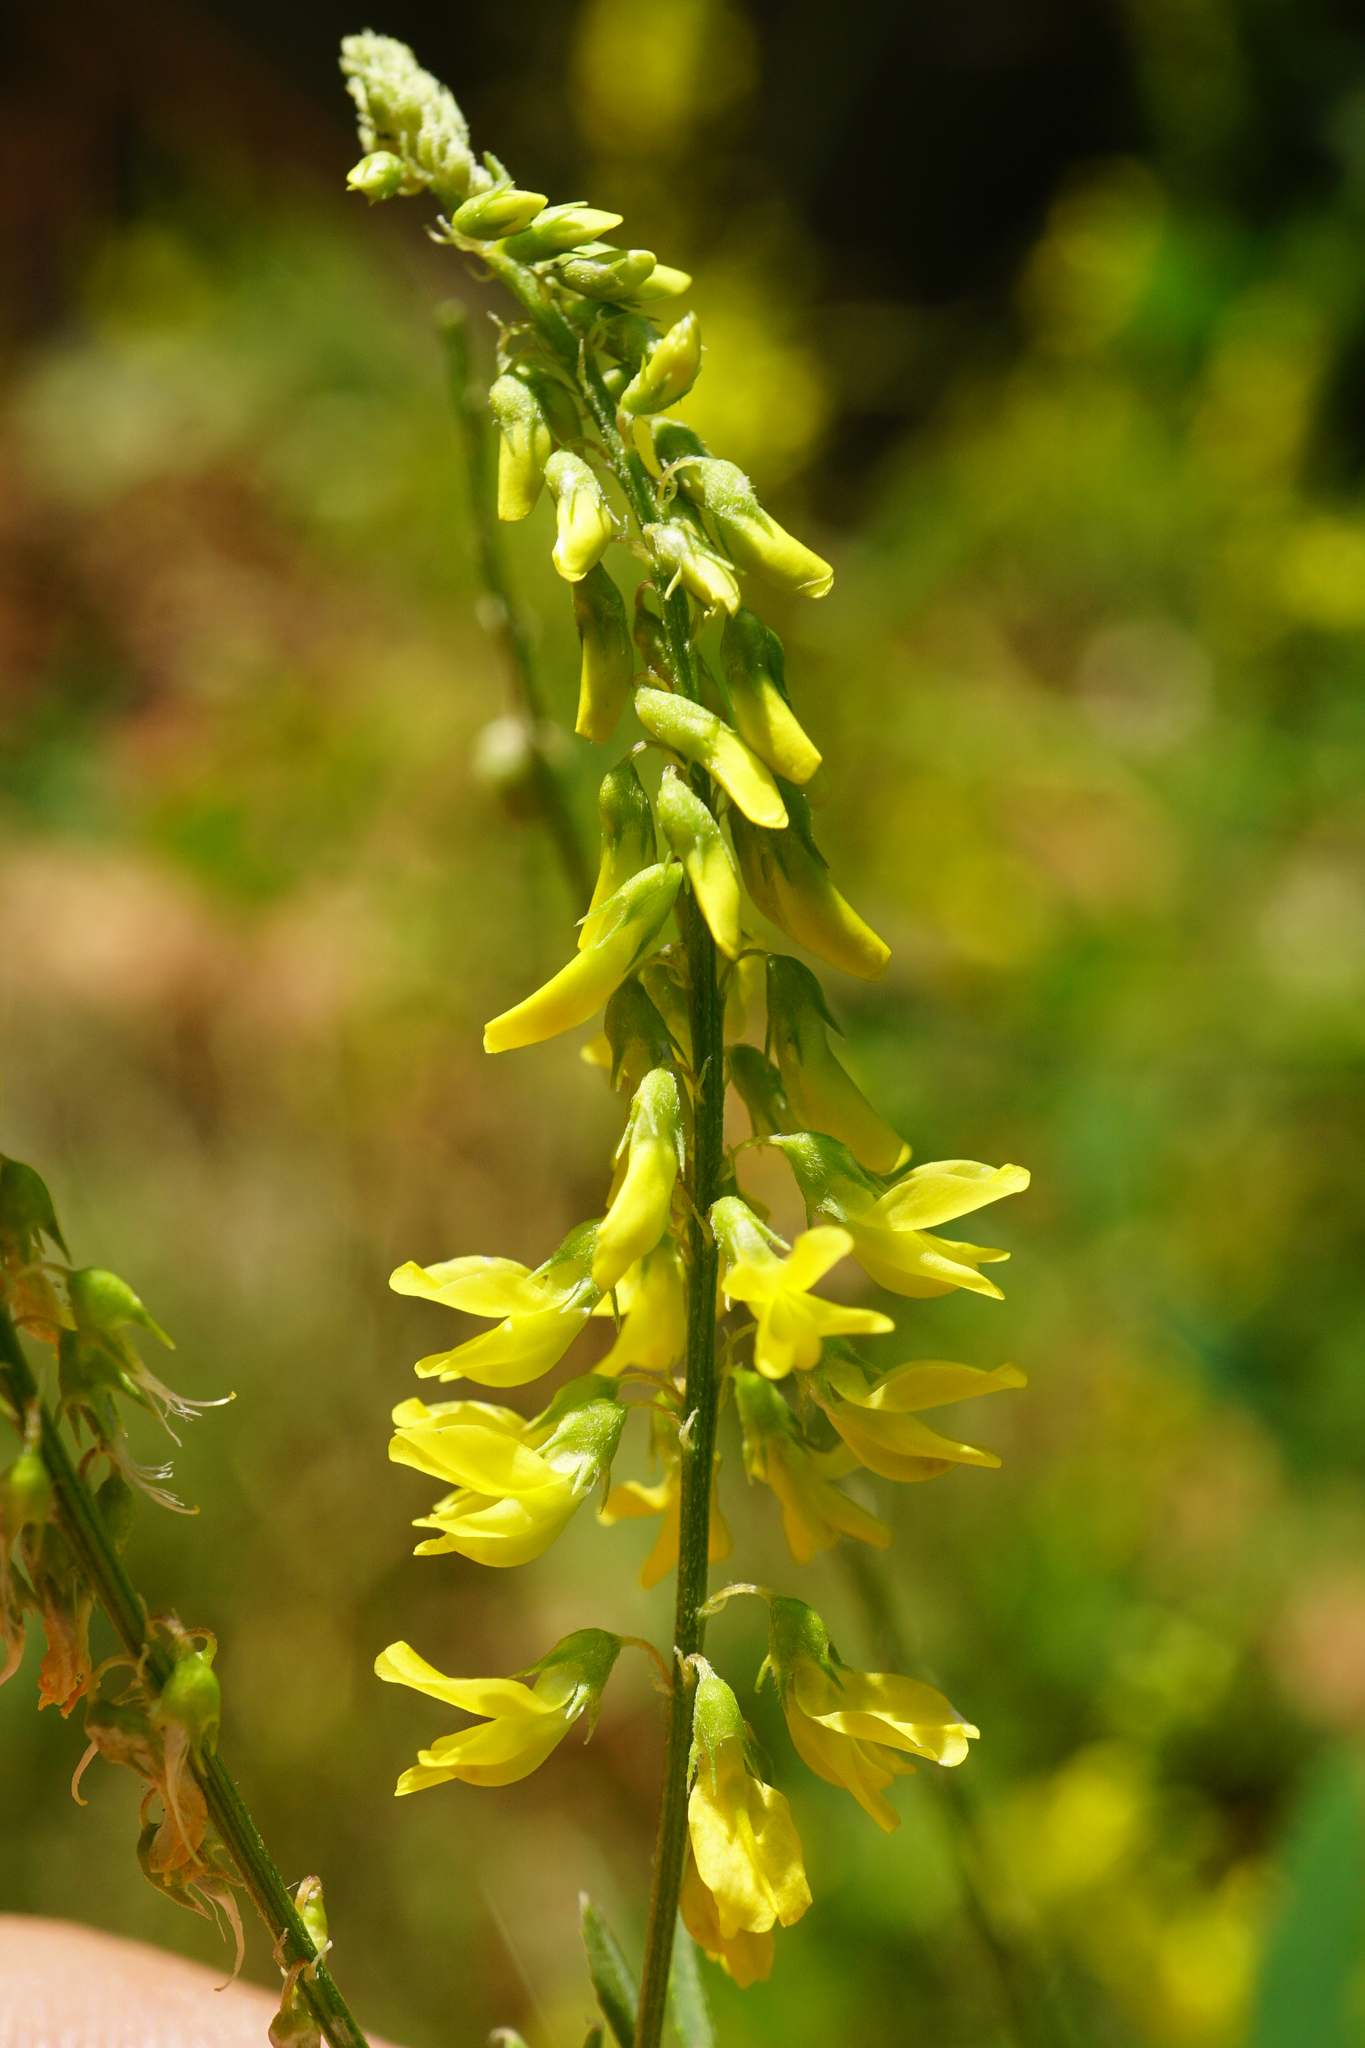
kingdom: Plantae
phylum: Tracheophyta
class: Magnoliopsida
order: Fabales
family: Fabaceae
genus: Melilotus
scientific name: Melilotus officinalis
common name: Sweetclover
